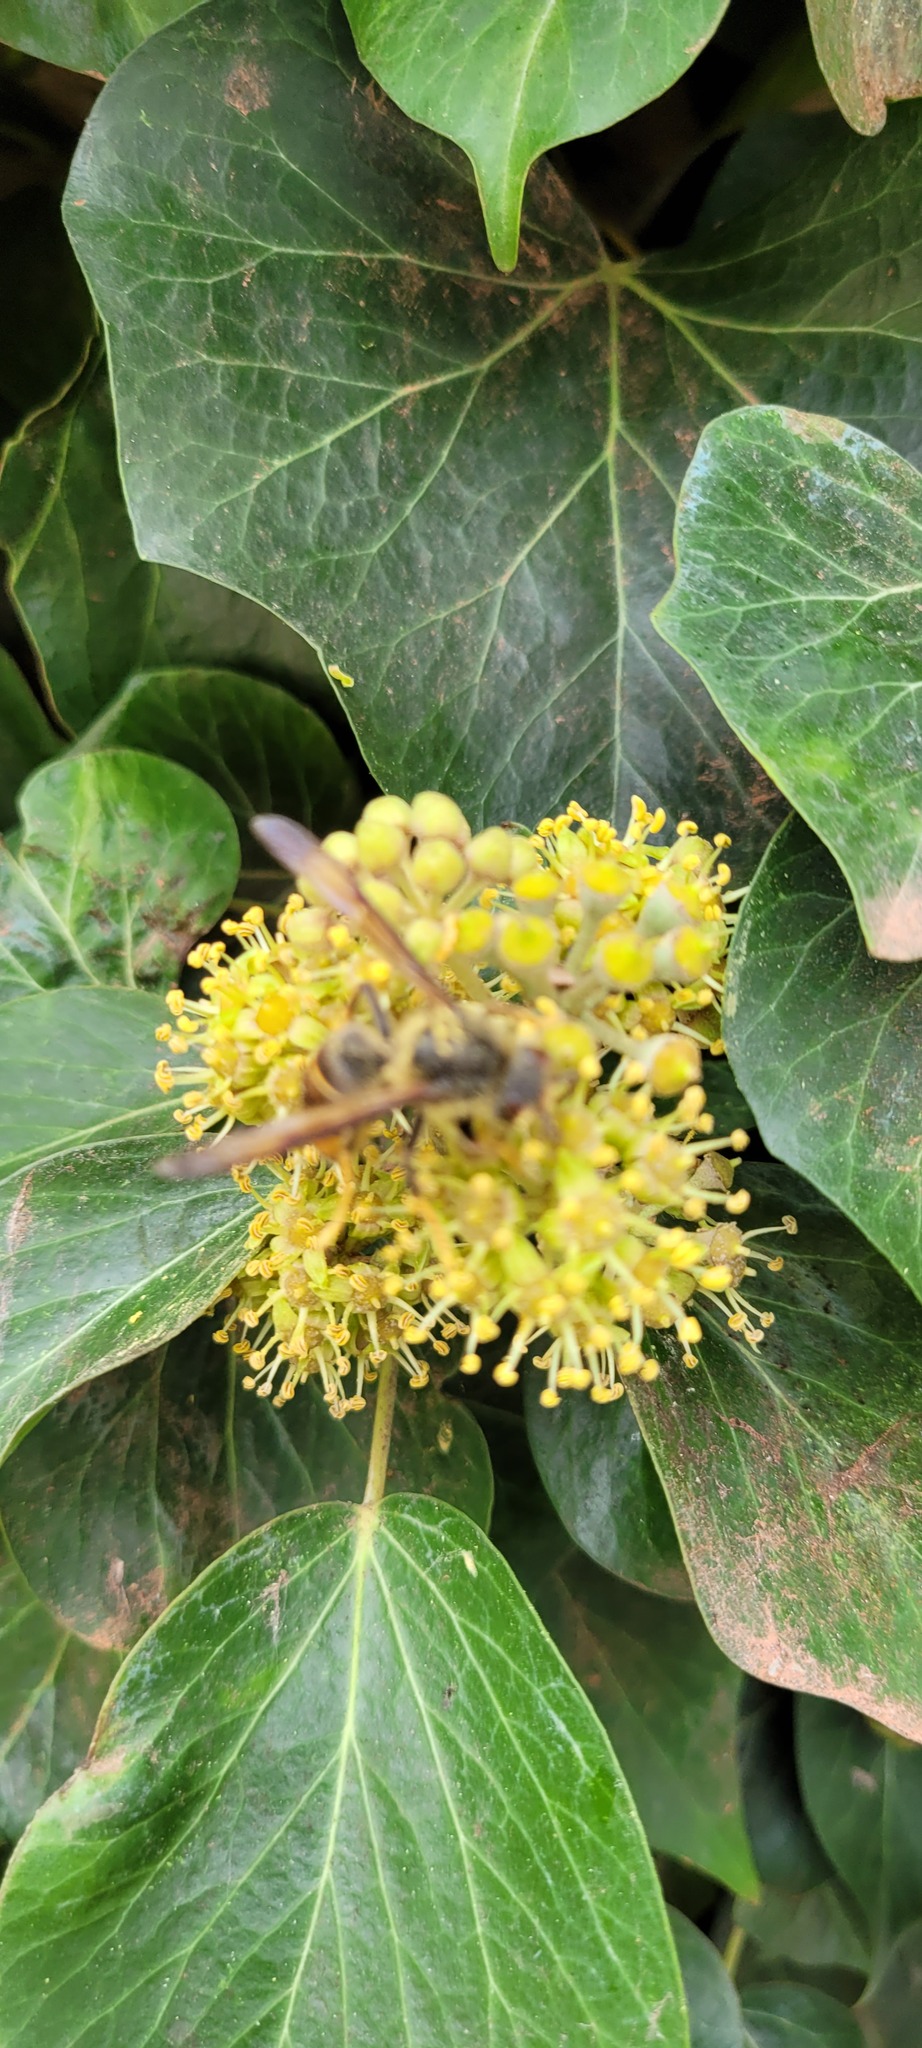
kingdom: Animalia
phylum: Arthropoda
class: Insecta
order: Hymenoptera
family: Vespidae
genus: Vespa
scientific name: Vespa velutina
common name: Asian hornet
